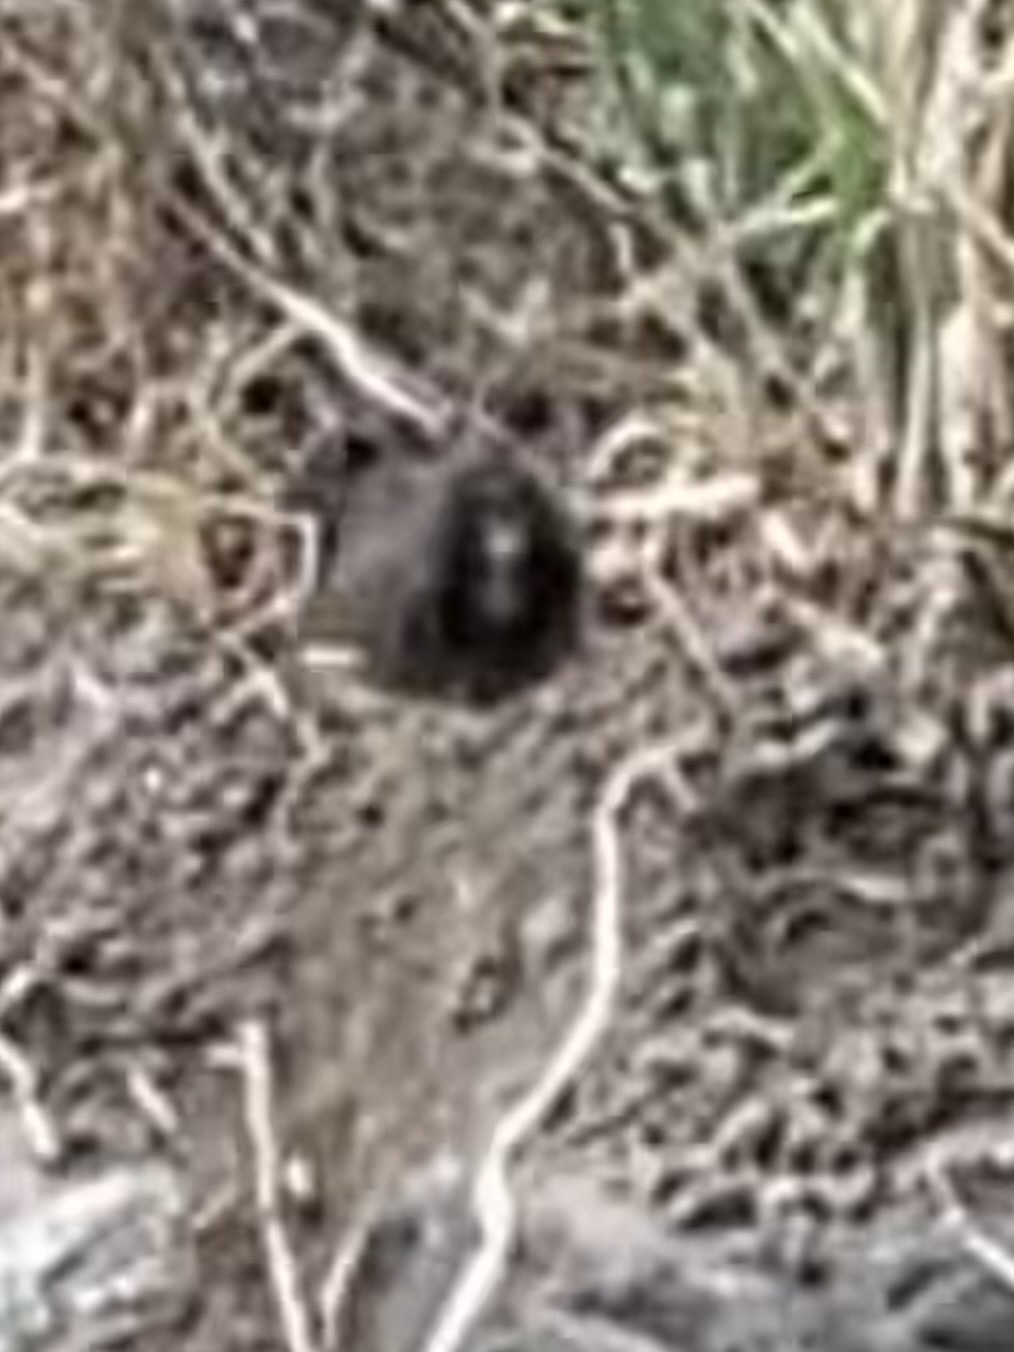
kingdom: Animalia
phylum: Chordata
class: Mammalia
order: Rodentia
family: Geomyidae
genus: Thomomys
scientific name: Thomomys bottae
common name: Botta's pocket gopher
